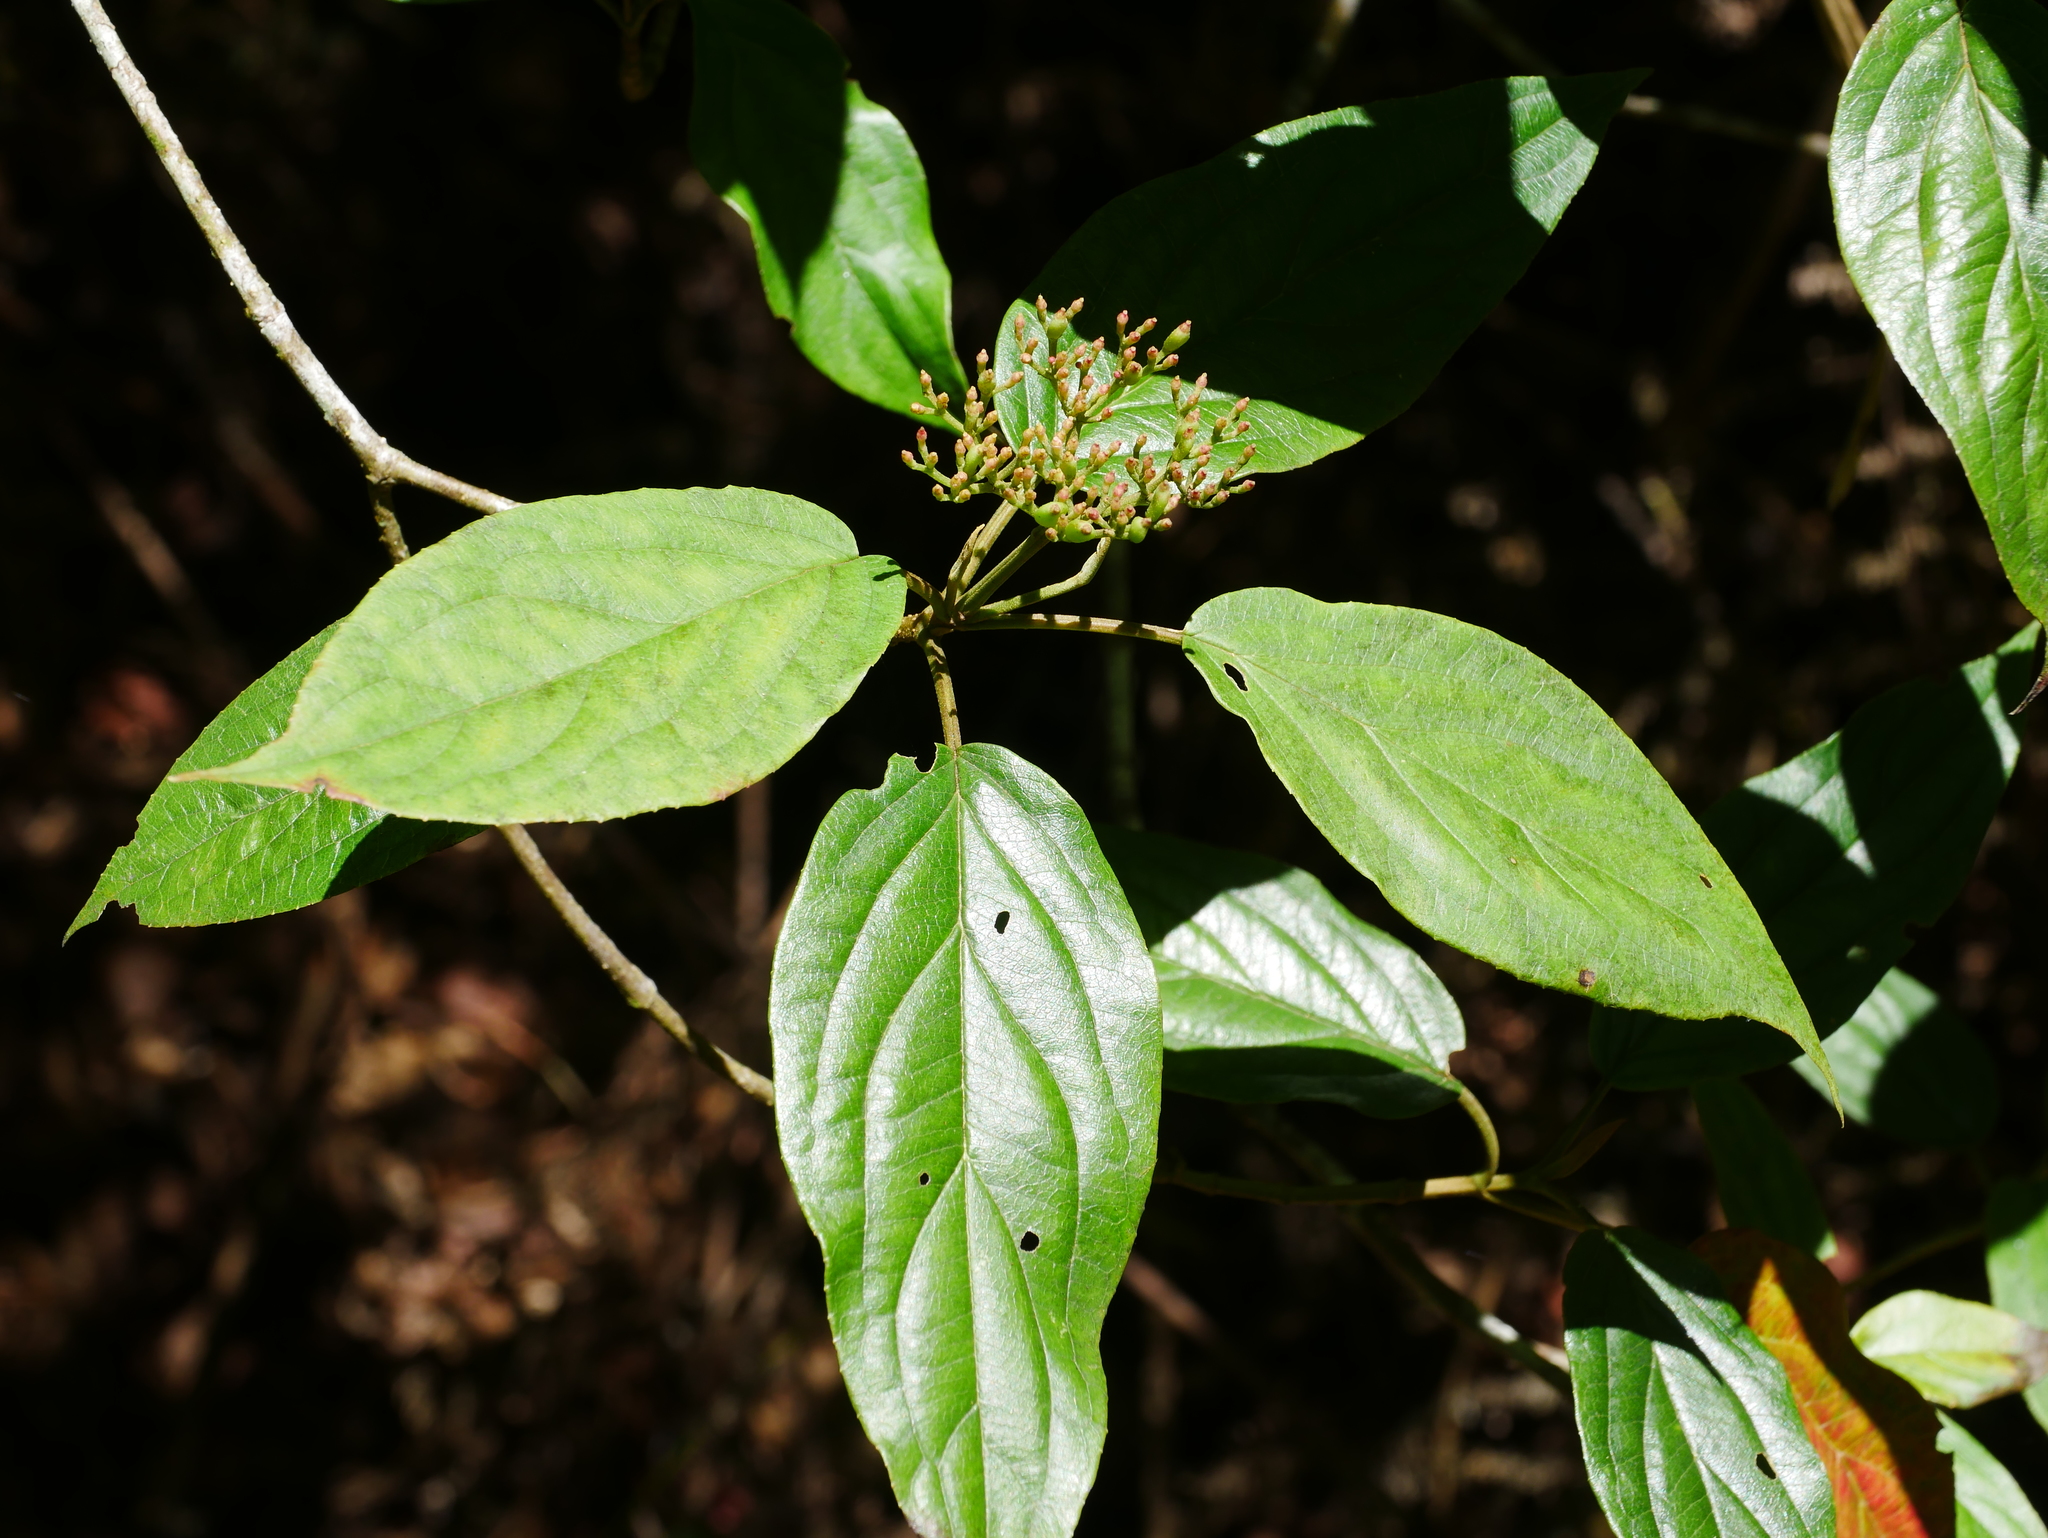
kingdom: Plantae
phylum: Tracheophyta
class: Magnoliopsida
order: Dipsacales
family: Viburnaceae
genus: Viburnum
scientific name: Viburnum urceolatum
